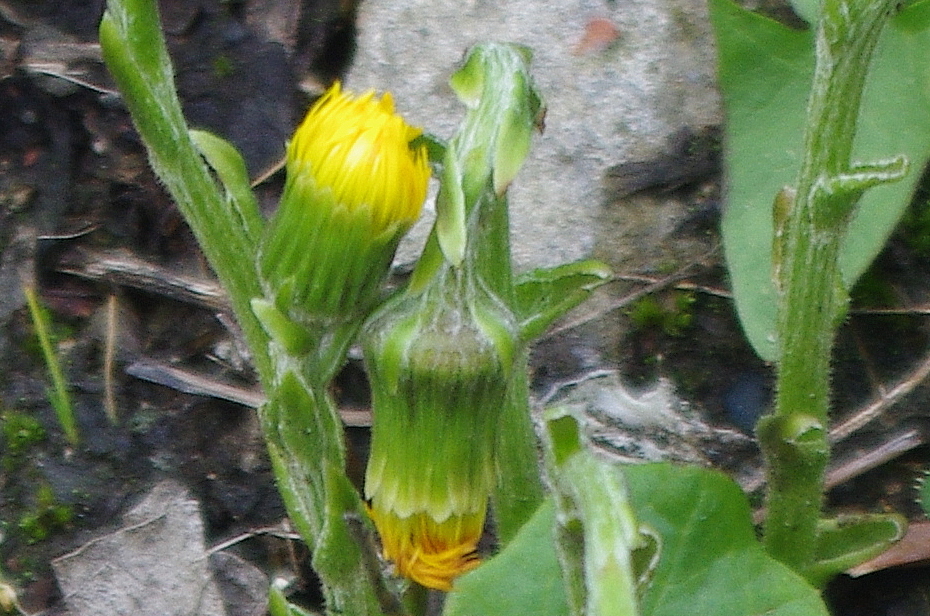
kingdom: Plantae
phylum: Tracheophyta
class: Magnoliopsida
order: Asterales
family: Asteraceae
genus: Tussilago
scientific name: Tussilago farfara
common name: Coltsfoot
